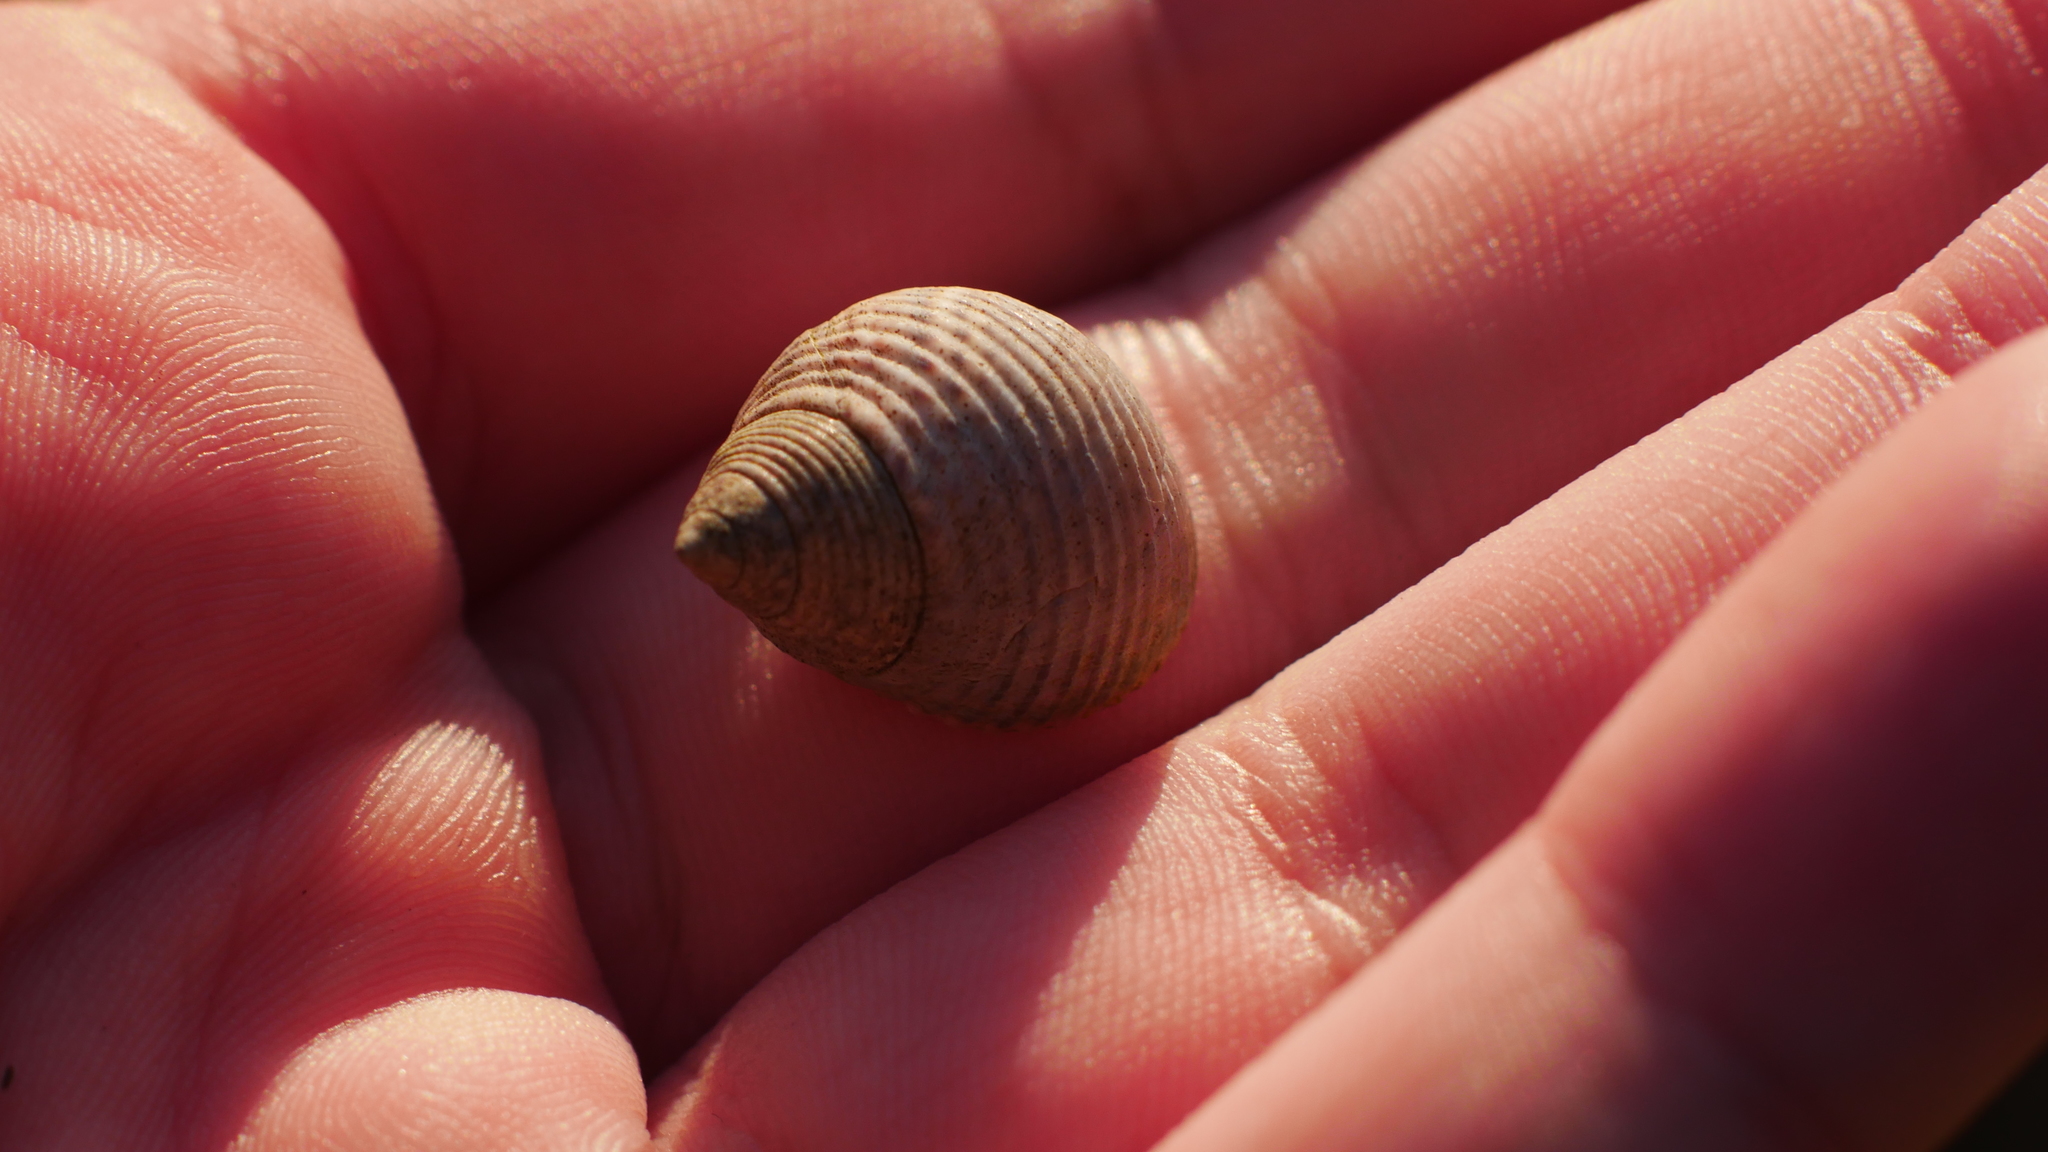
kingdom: Animalia
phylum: Mollusca
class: Gastropoda
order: Littorinimorpha
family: Littorinidae
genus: Littoraria
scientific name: Littoraria irrorata
